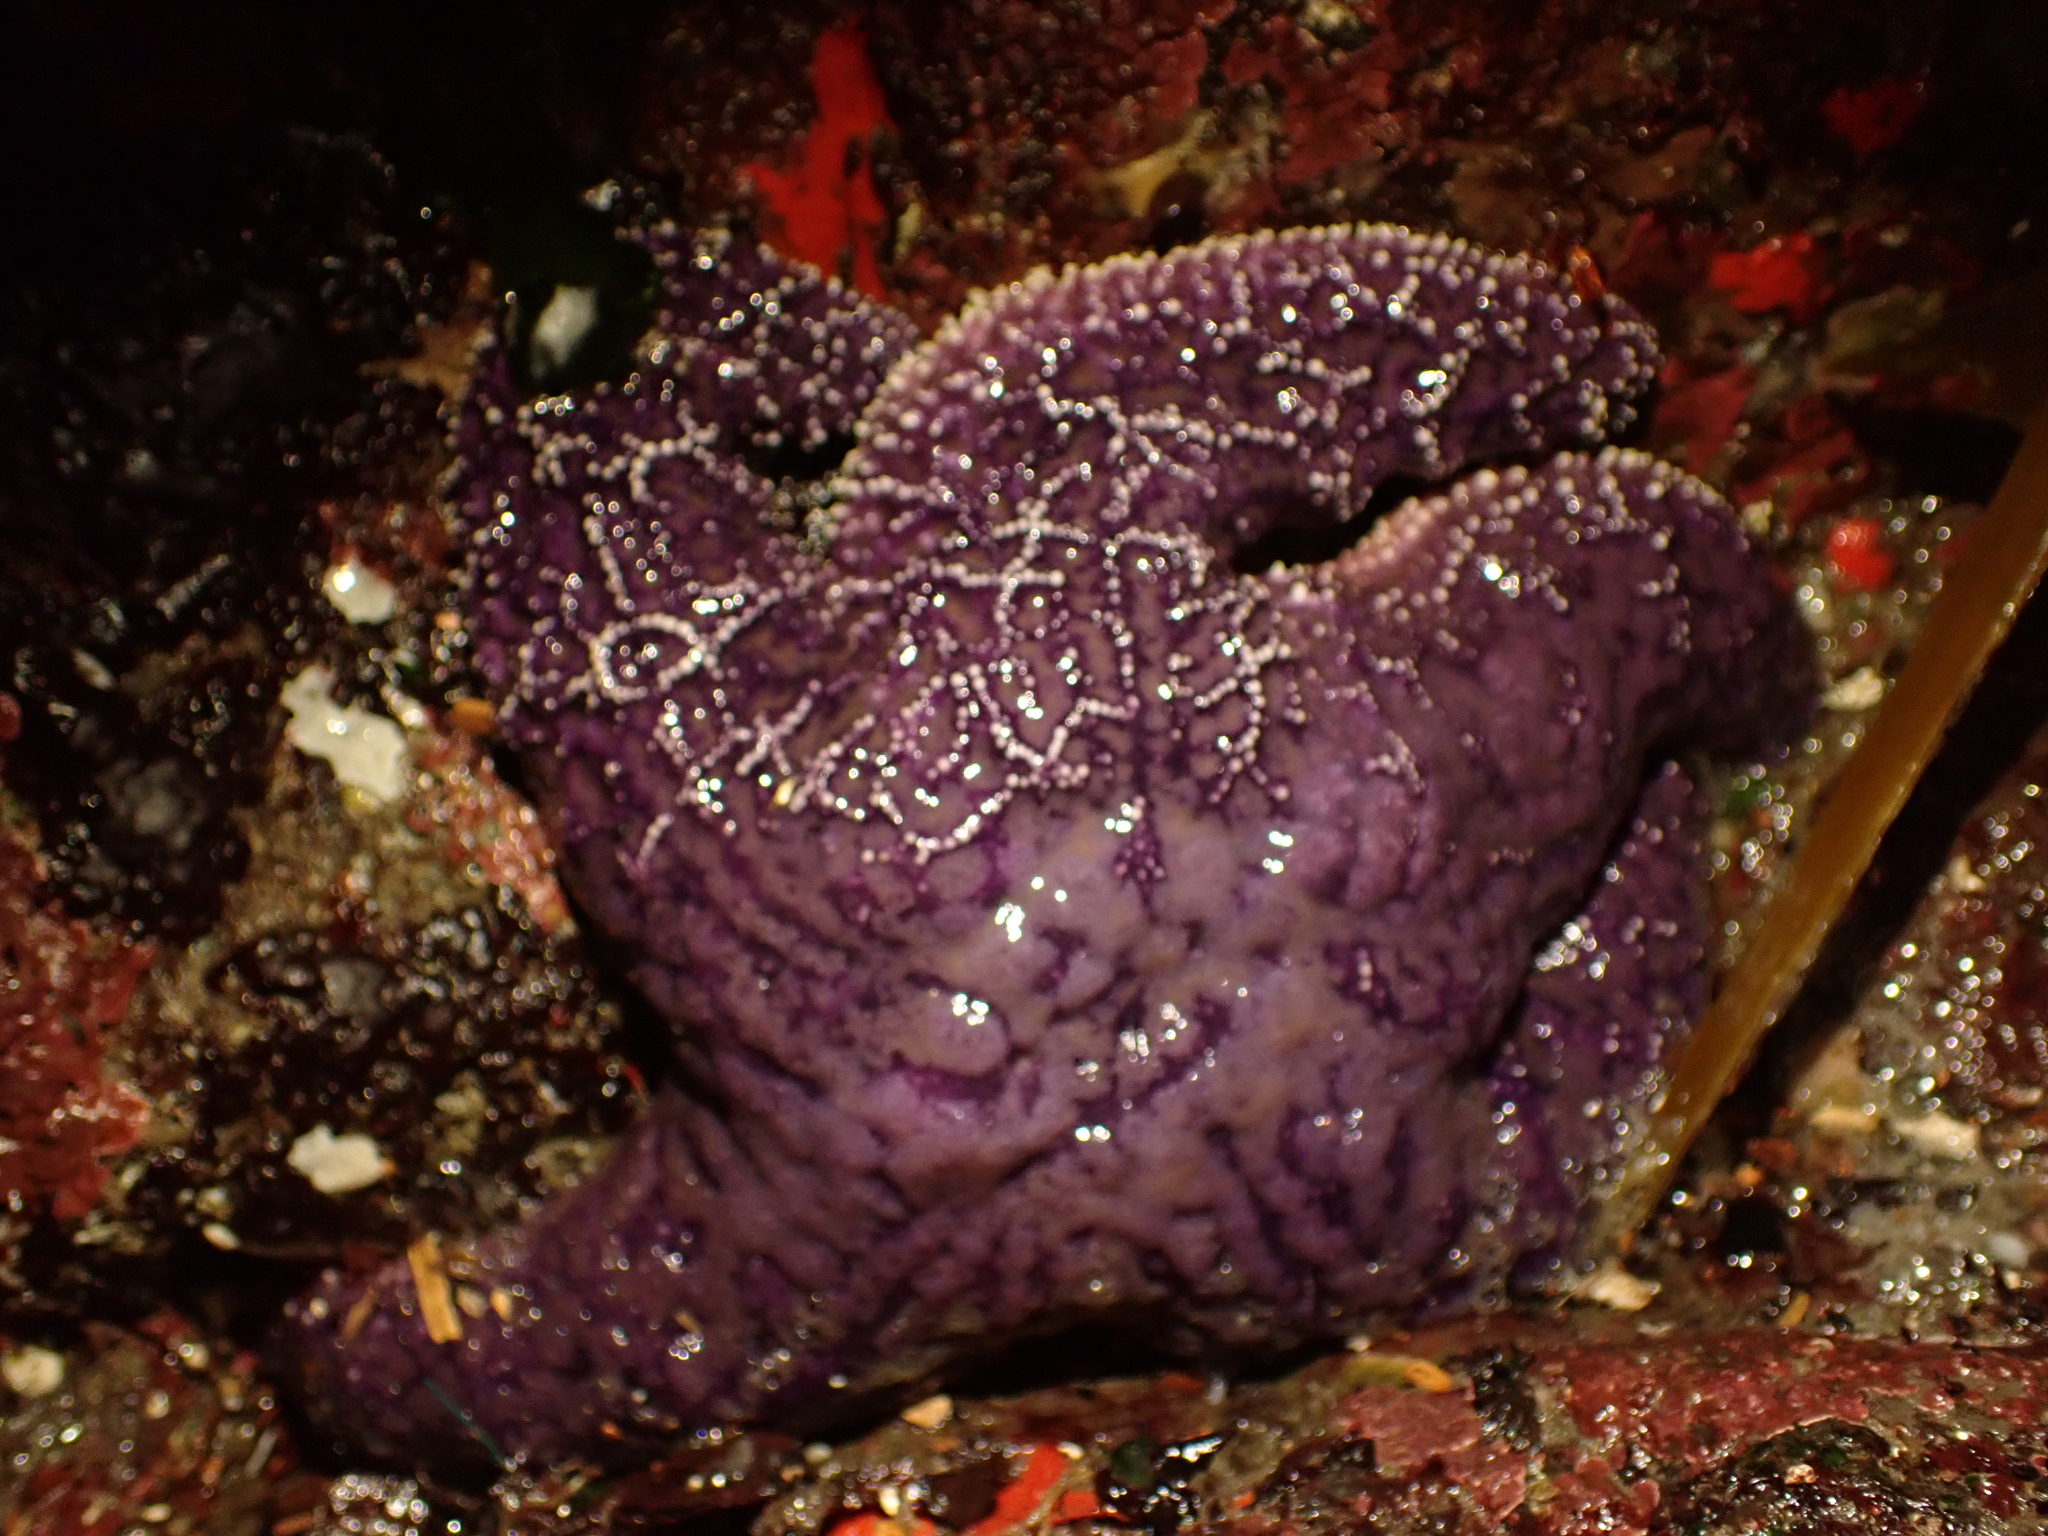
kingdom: Animalia
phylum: Echinodermata
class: Asteroidea
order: Forcipulatida
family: Asteriidae
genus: Pisaster
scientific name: Pisaster ochraceus
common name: Ochre stars
